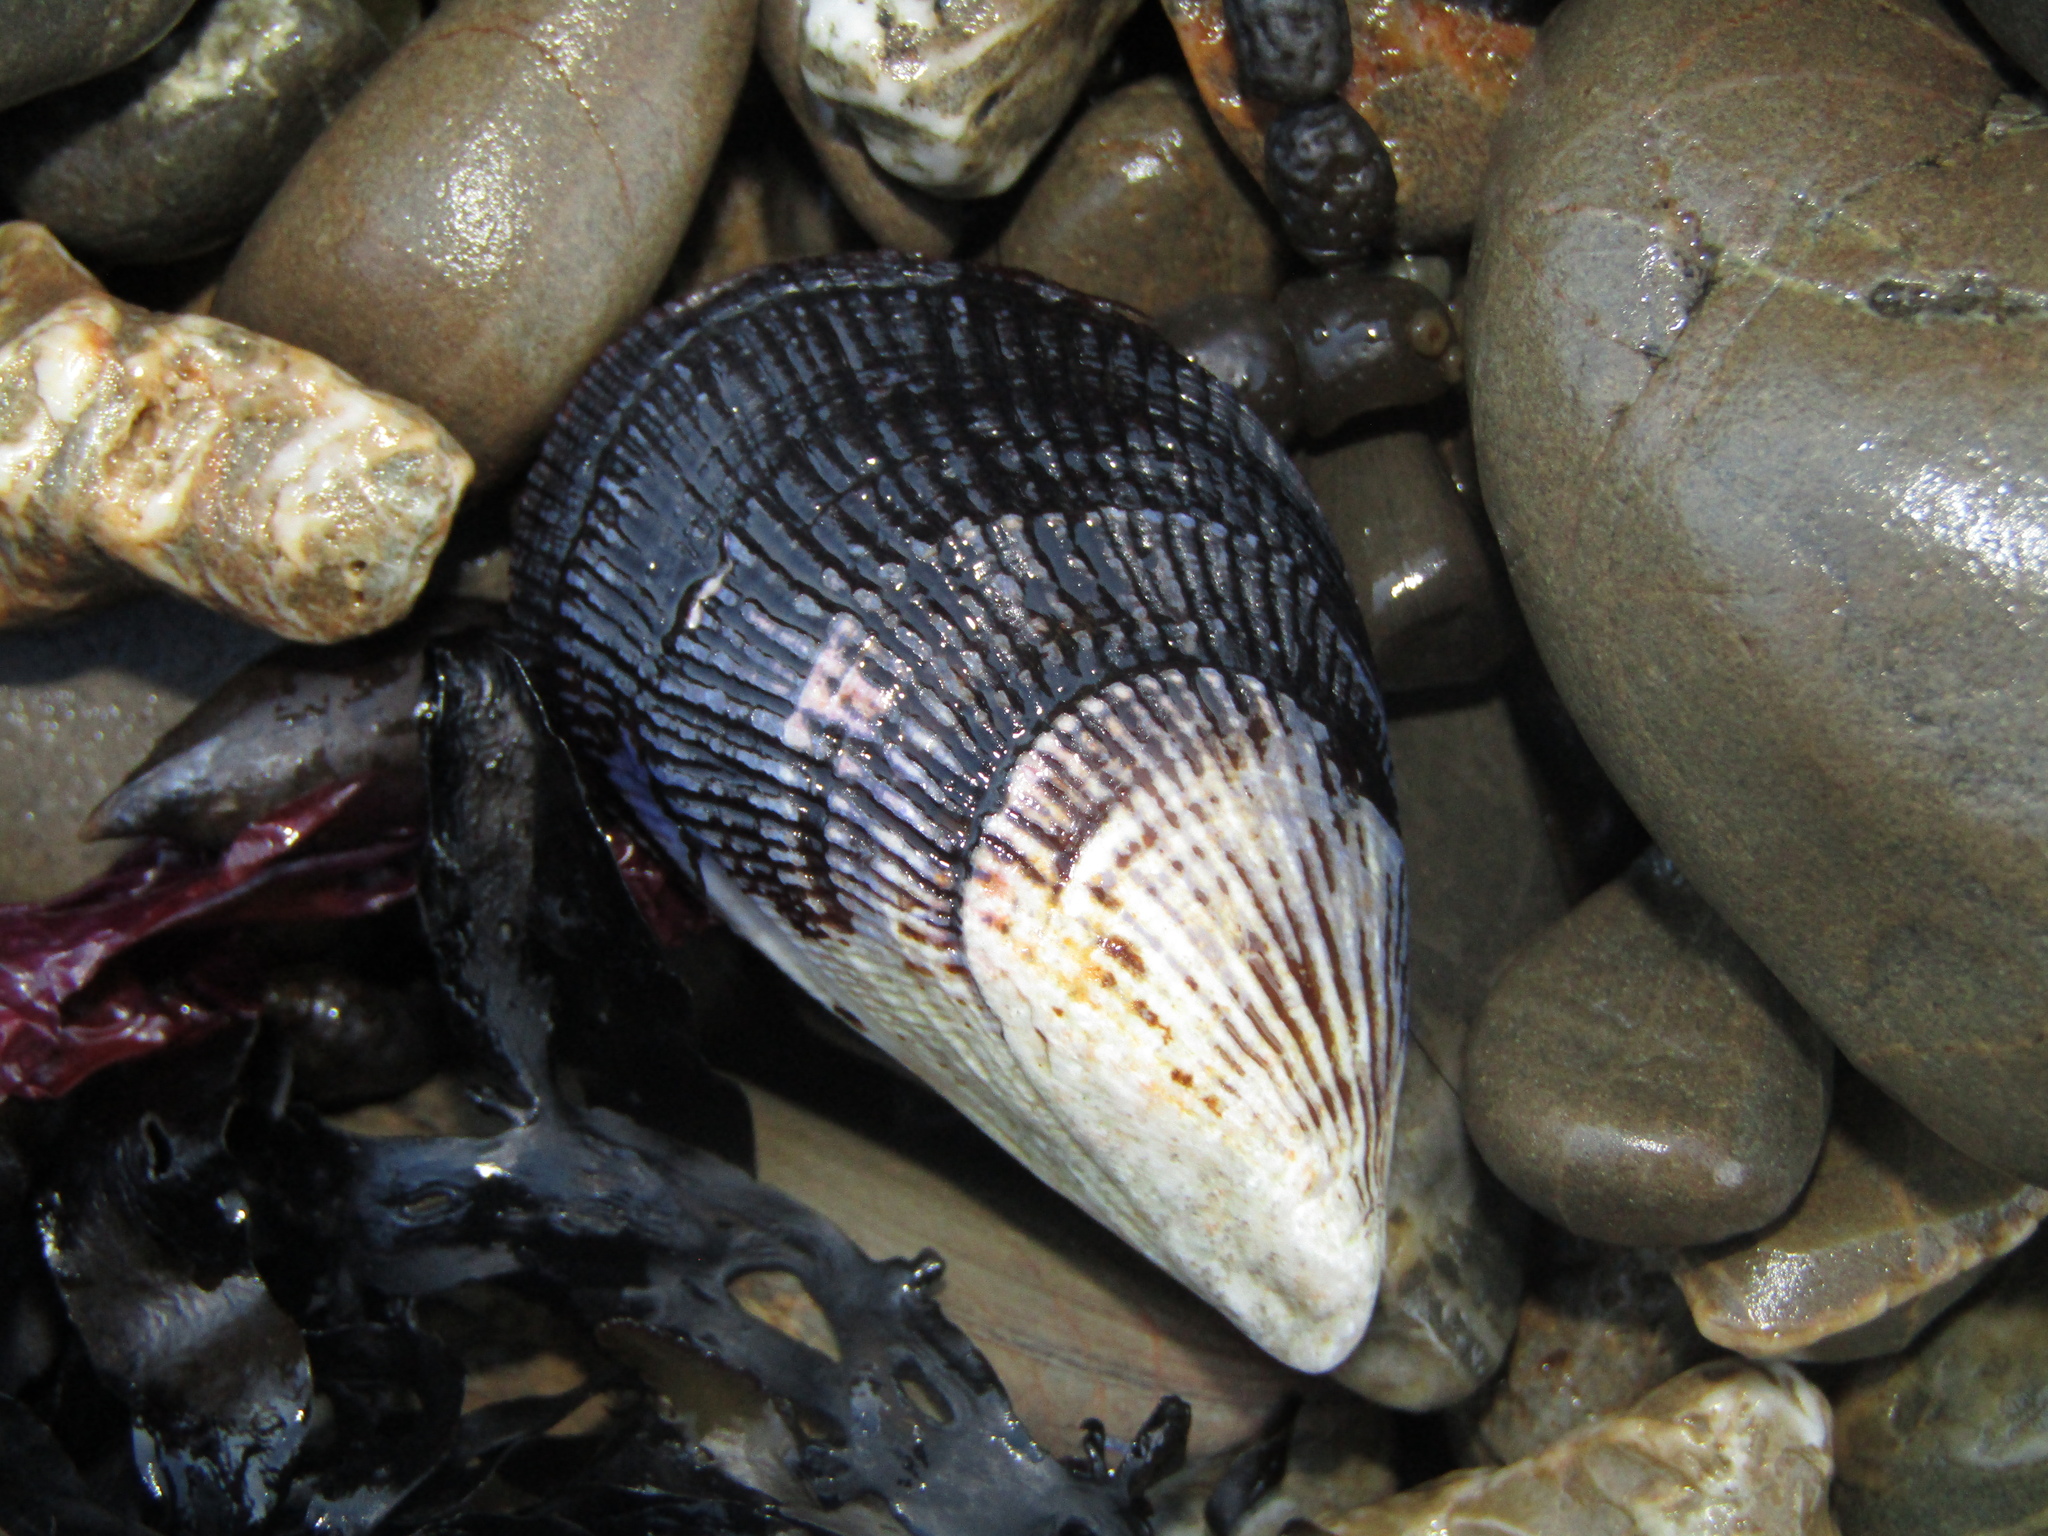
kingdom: Animalia
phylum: Mollusca
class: Bivalvia
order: Mytilida
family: Mytilidae
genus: Aulacomya
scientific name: Aulacomya maoriana
